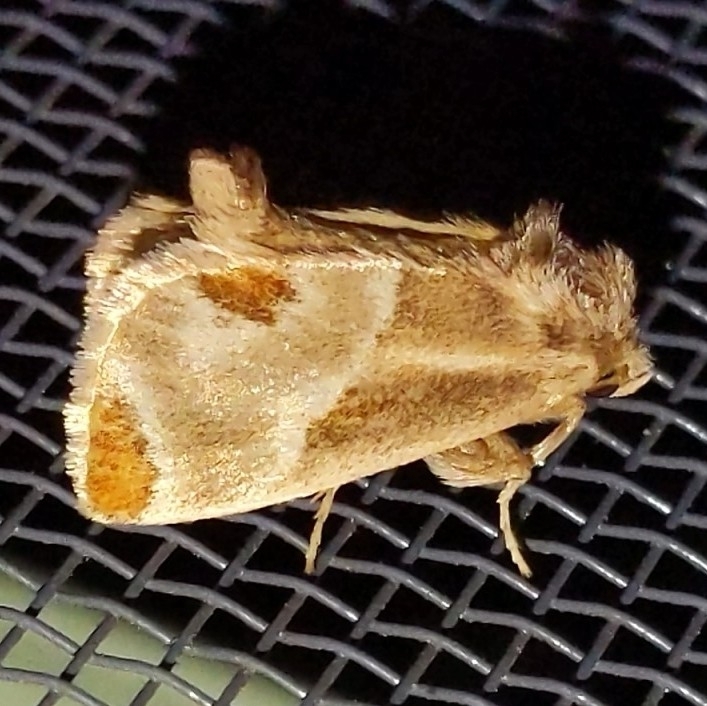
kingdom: Animalia
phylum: Arthropoda
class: Insecta
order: Lepidoptera
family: Limacodidae
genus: Apoda
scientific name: Apoda biguttata
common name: Shagreened slug moth
